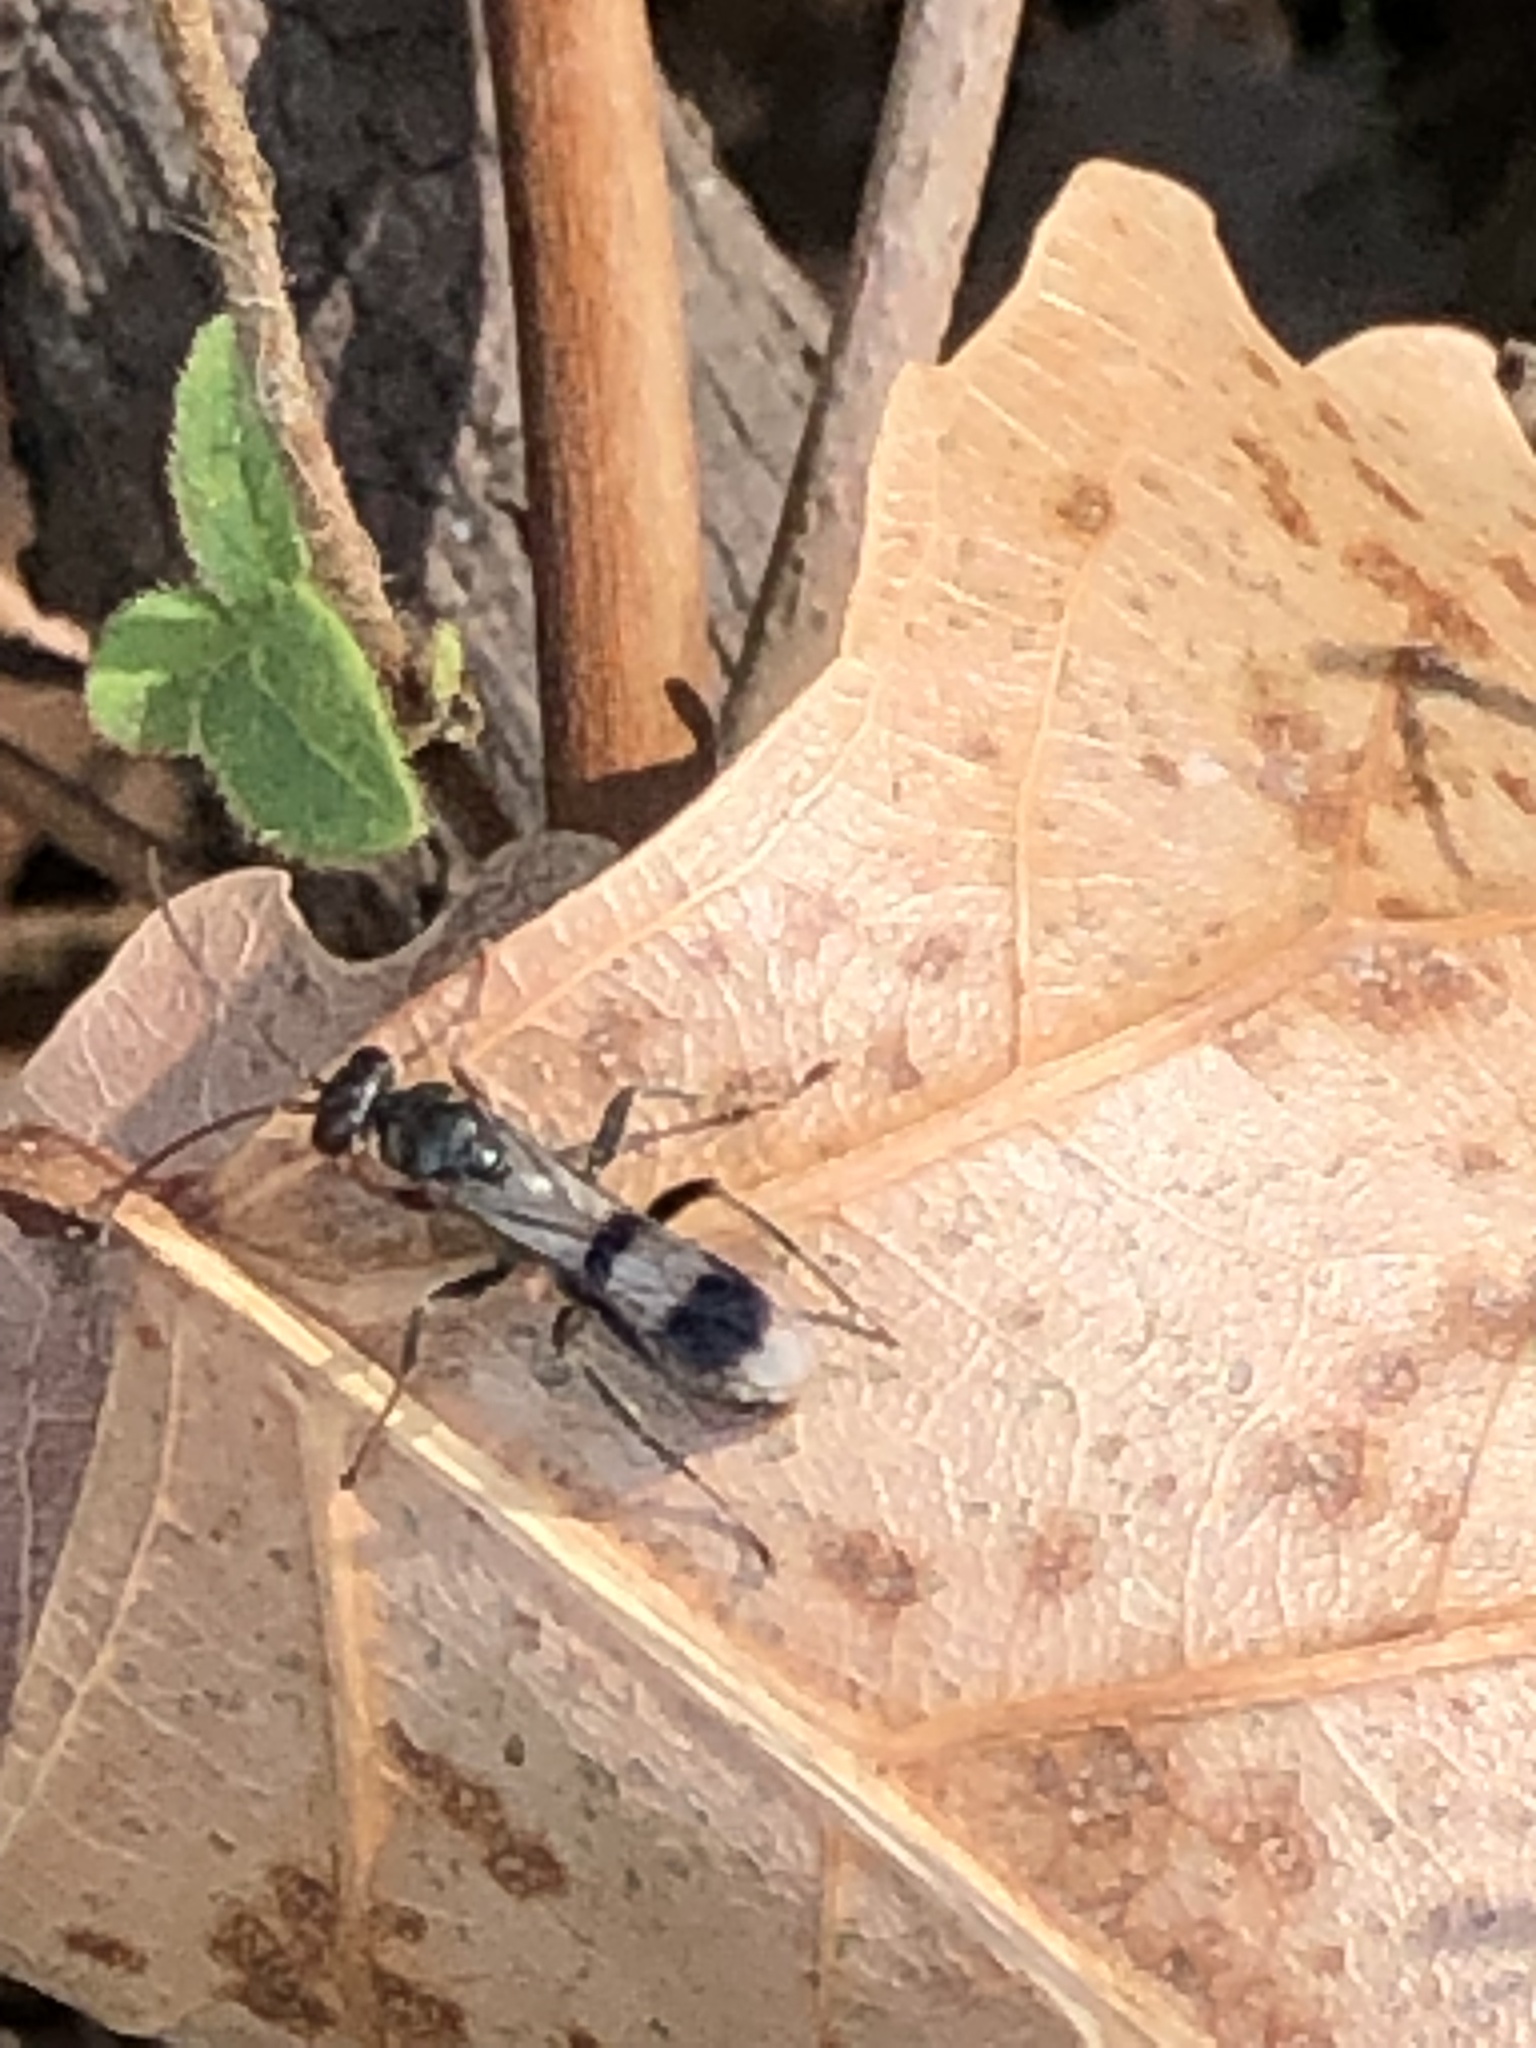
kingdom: Animalia
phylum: Arthropoda
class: Insecta
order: Hymenoptera
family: Pompilidae
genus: Dipogon
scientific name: Dipogon calipterus
